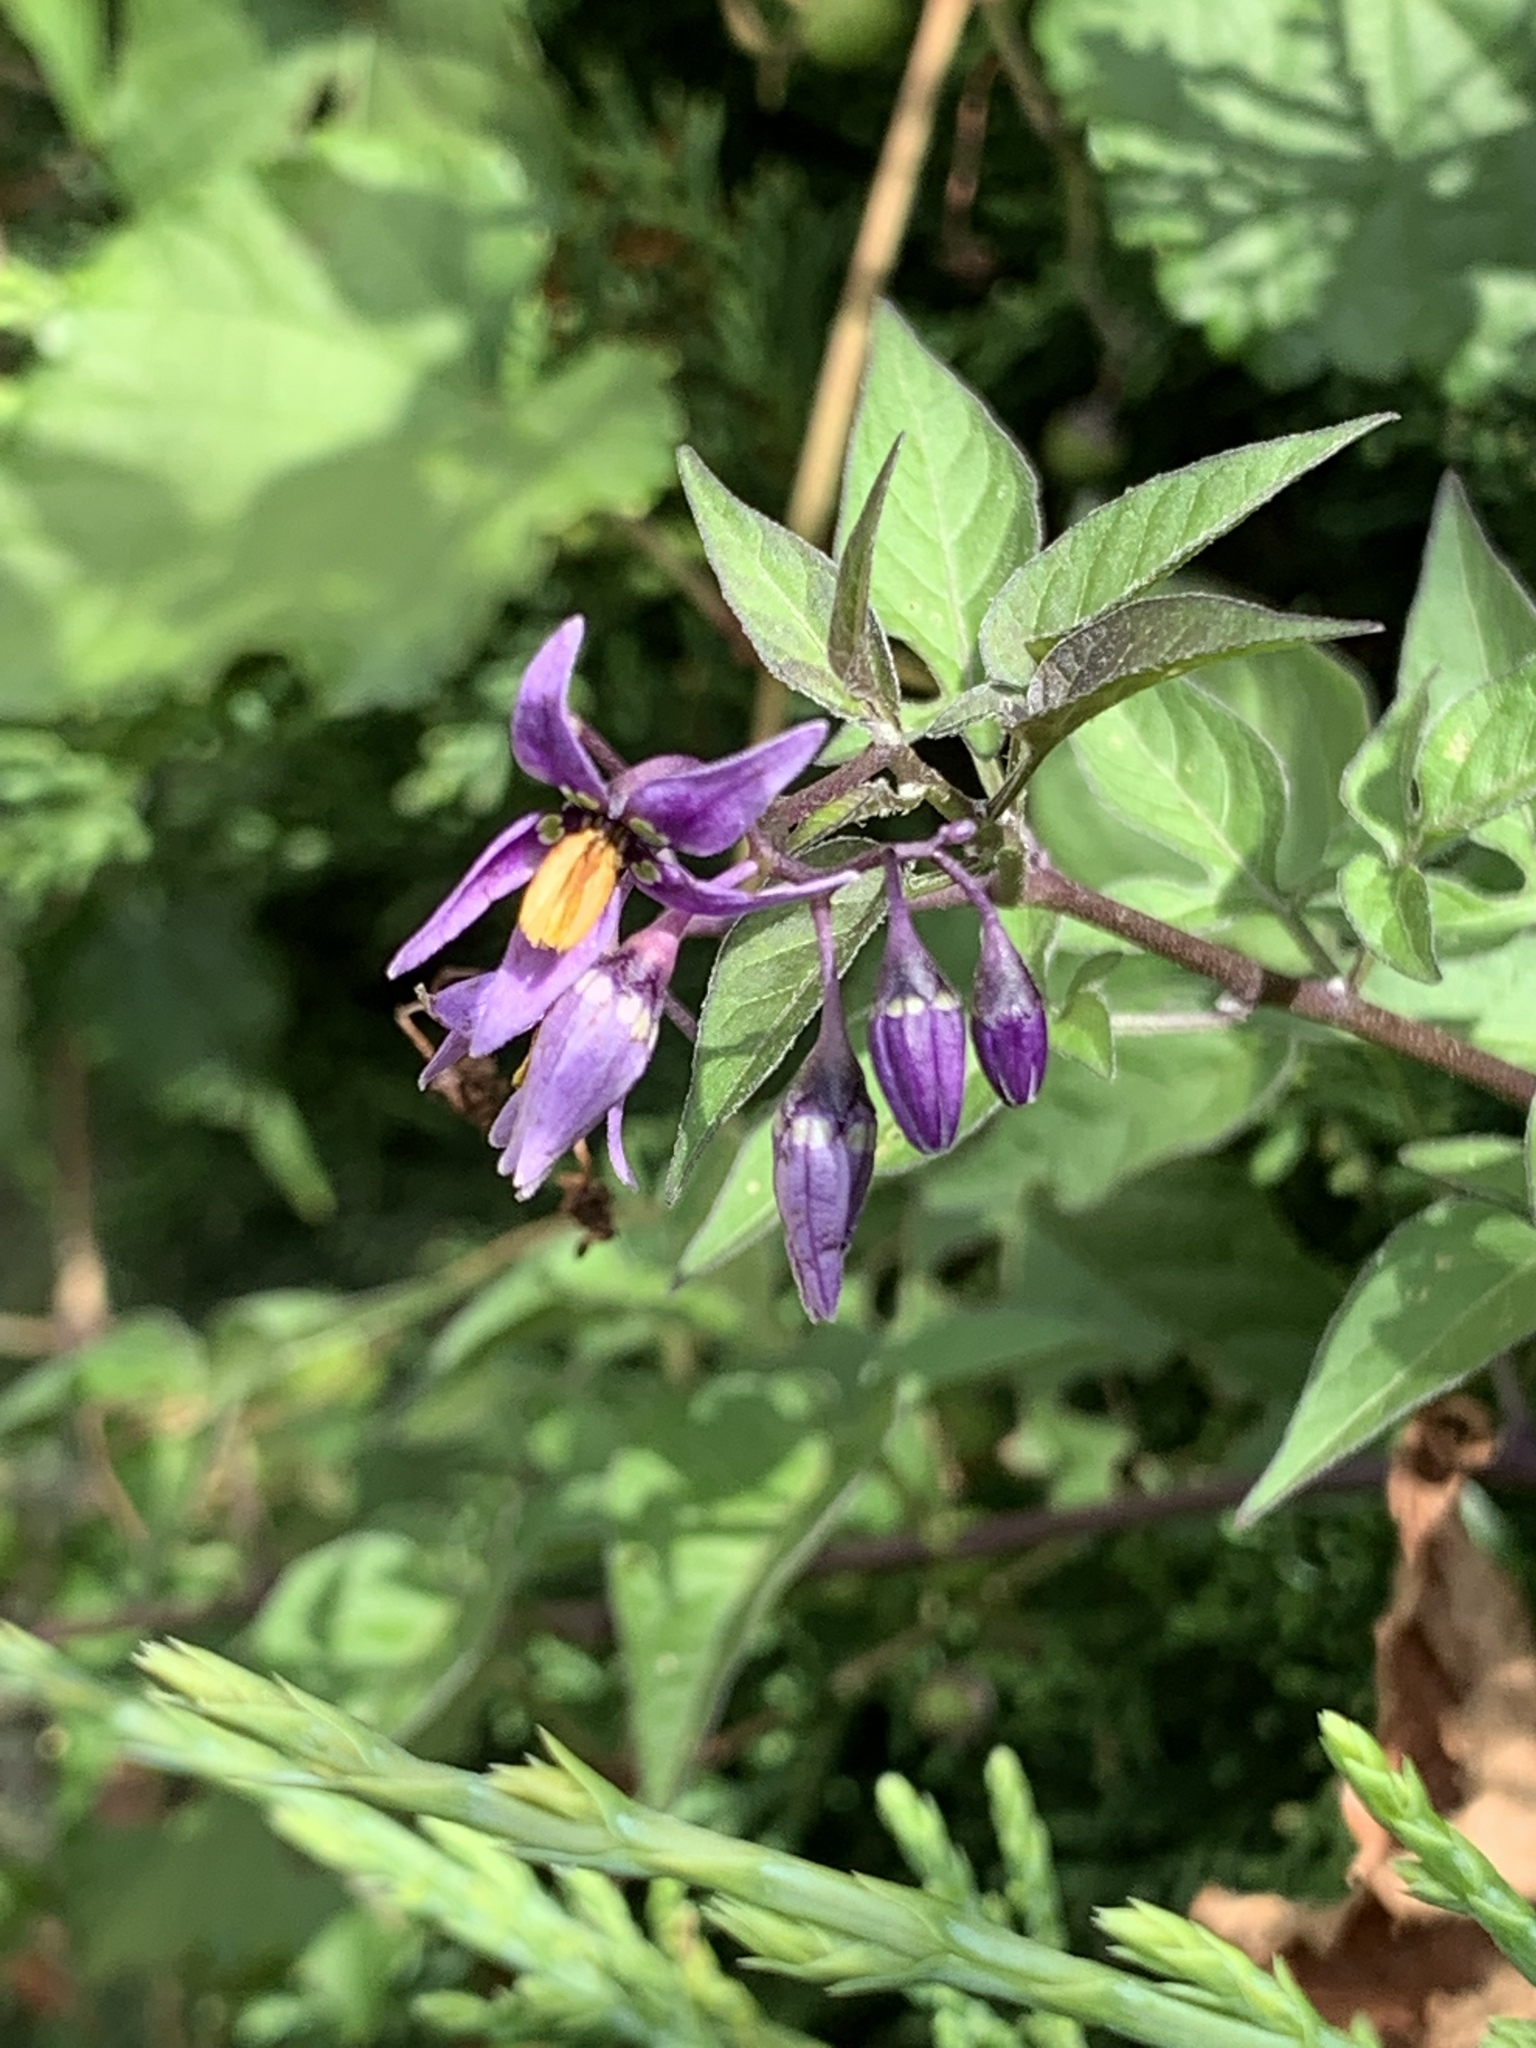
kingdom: Plantae
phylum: Tracheophyta
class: Magnoliopsida
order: Solanales
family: Solanaceae
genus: Solanum
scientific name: Solanum dulcamara
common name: Climbing nightshade
